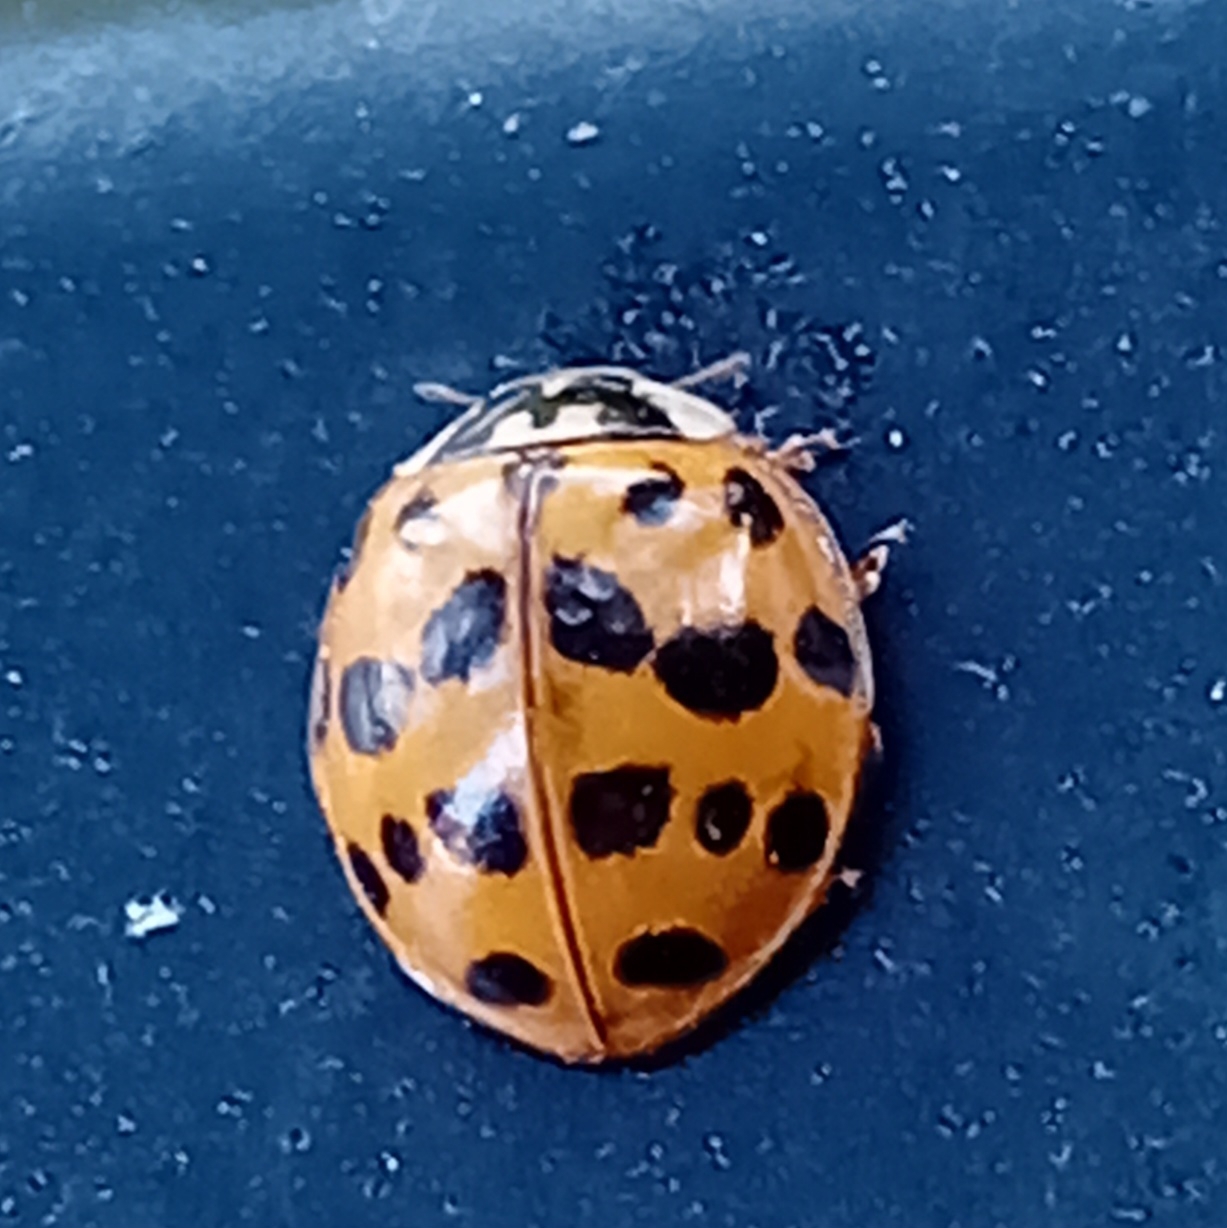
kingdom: Animalia
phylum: Arthropoda
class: Insecta
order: Coleoptera
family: Coccinellidae
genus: Harmonia
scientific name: Harmonia axyridis
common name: Harlequin ladybird
